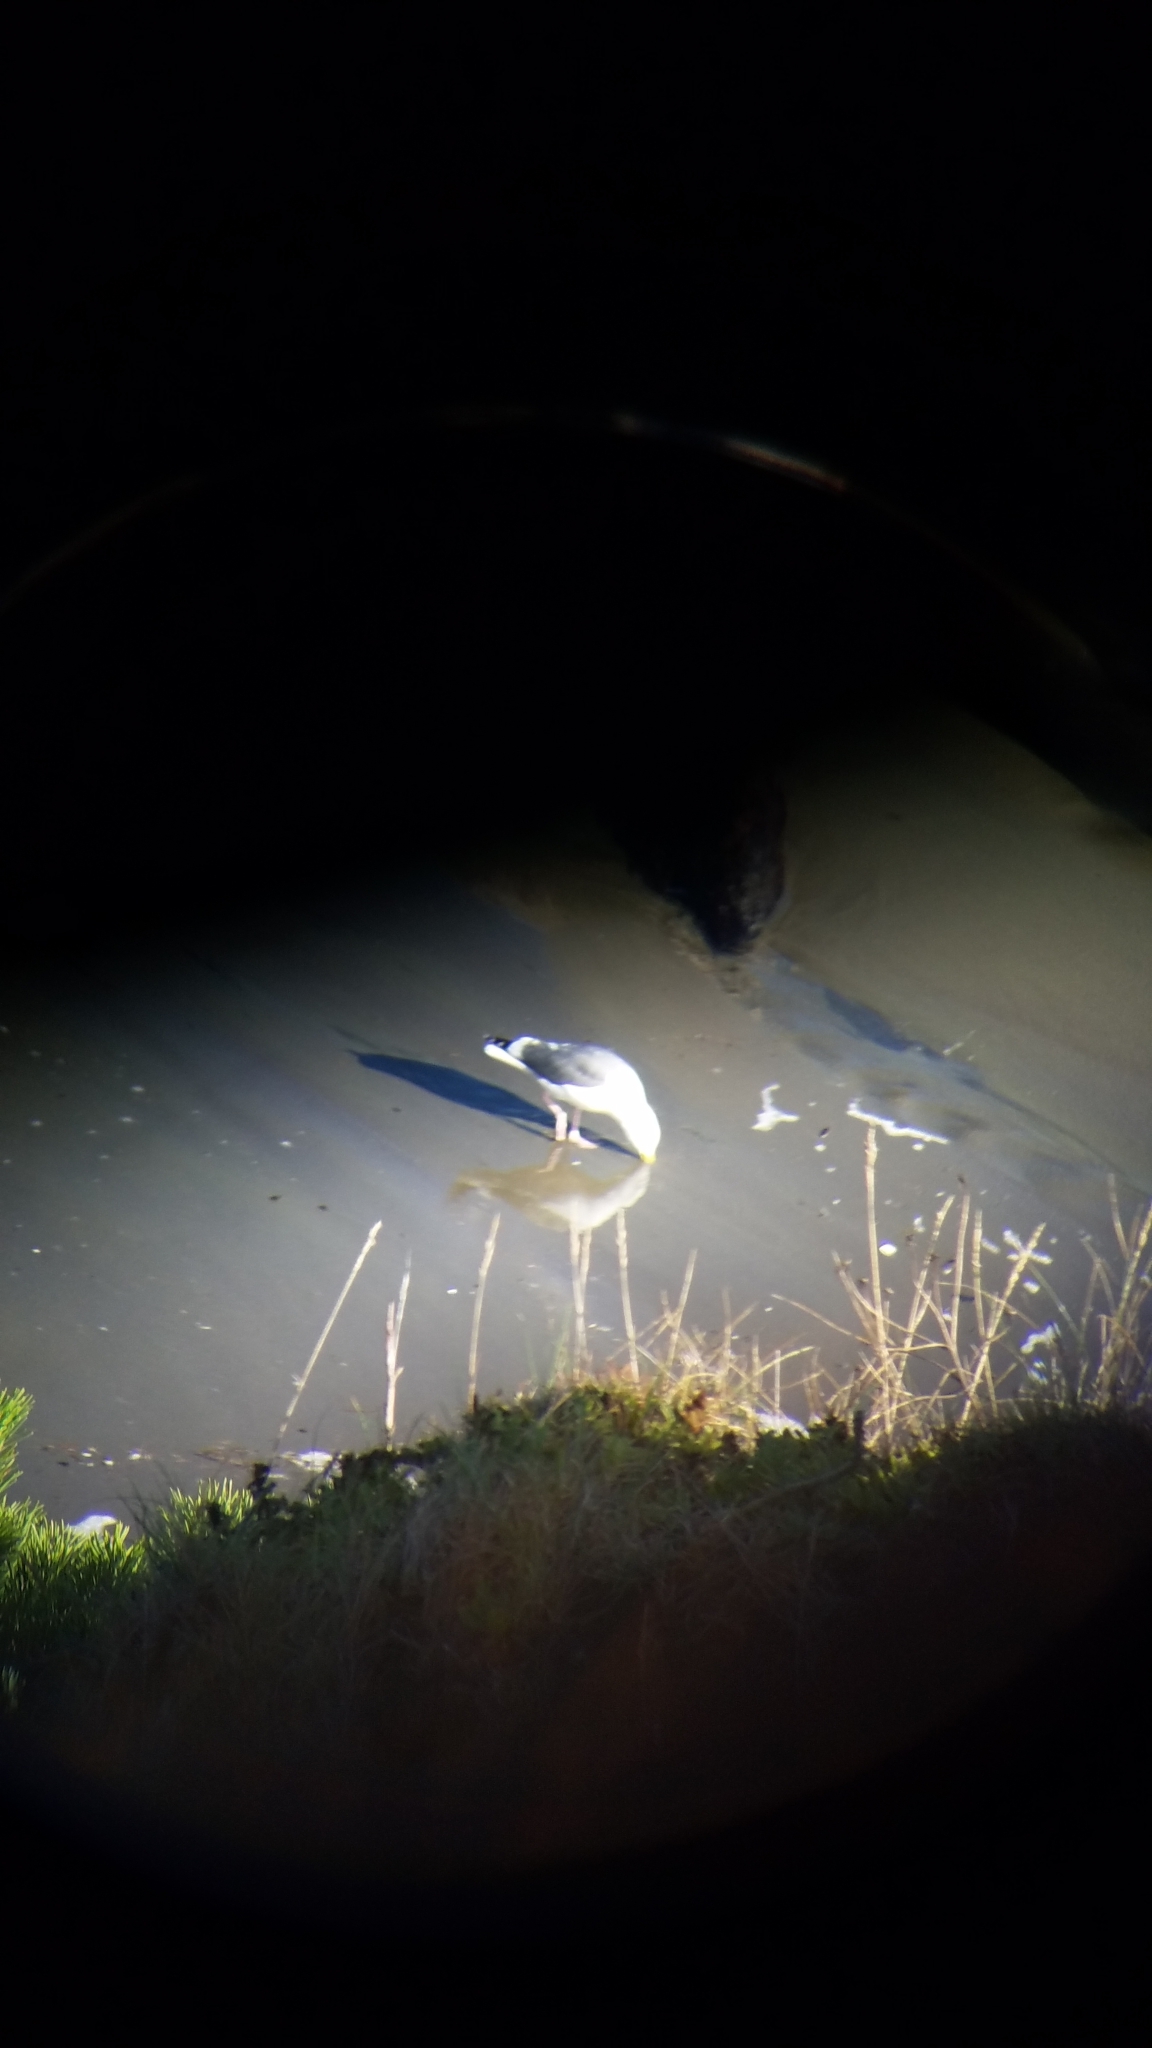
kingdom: Animalia
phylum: Chordata
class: Aves
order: Charadriiformes
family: Laridae
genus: Larus
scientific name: Larus occidentalis
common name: Western gull
